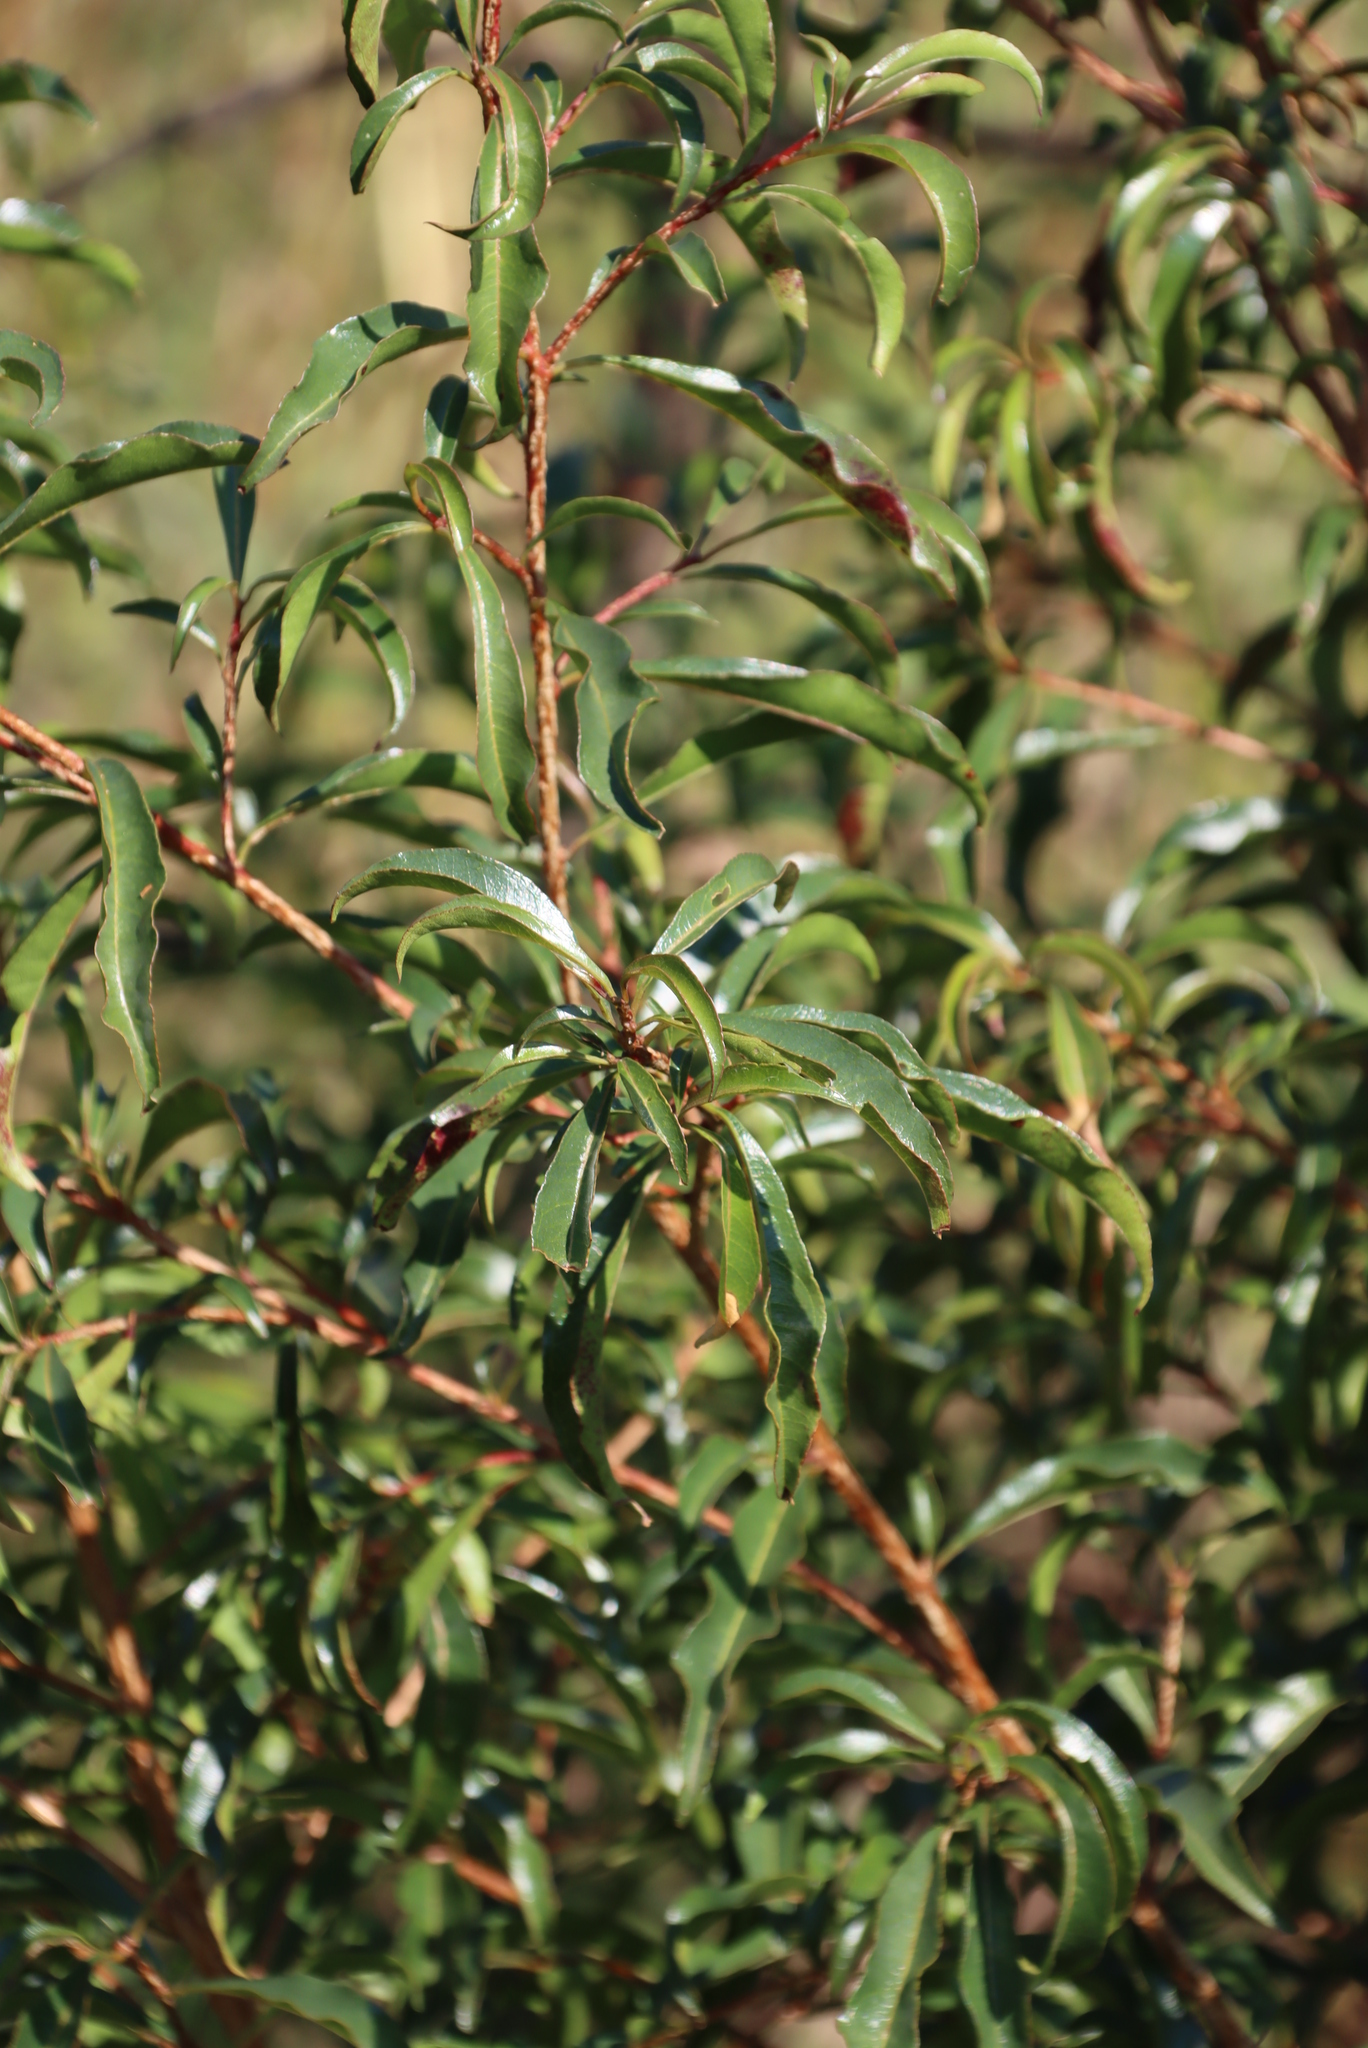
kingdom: Plantae
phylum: Tracheophyta
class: Magnoliopsida
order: Myrtales
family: Myrtaceae
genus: Heteropyxis
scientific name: Heteropyxis natalensis
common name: Lavender tree
